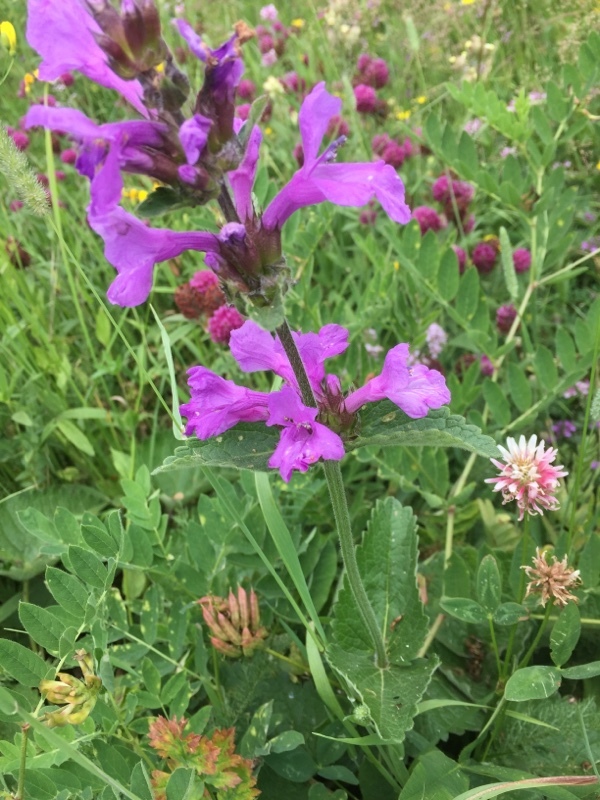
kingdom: Plantae
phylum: Tracheophyta
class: Magnoliopsida
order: Lamiales
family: Lamiaceae
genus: Betonica
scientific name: Betonica macrantha
